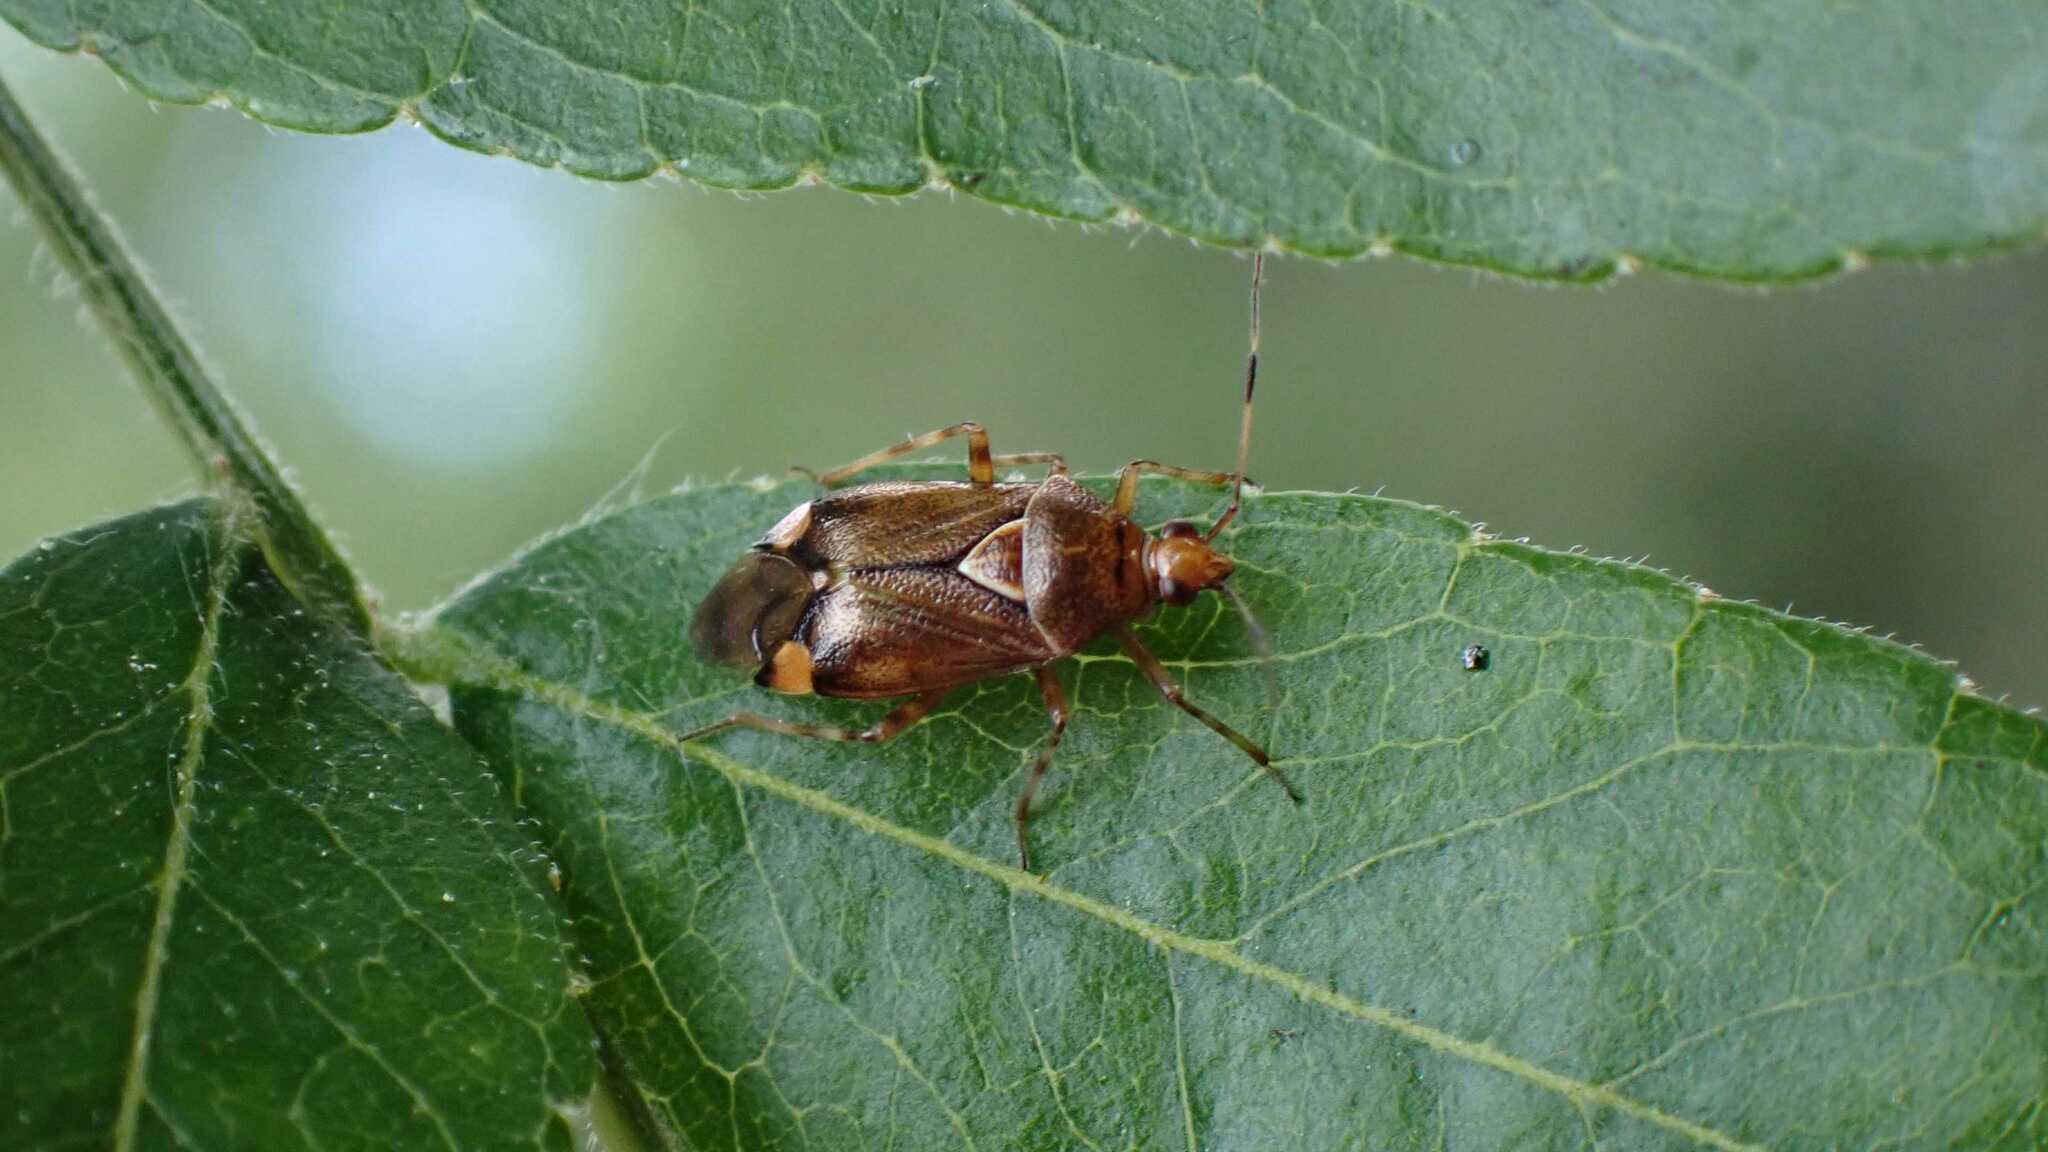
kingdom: Animalia
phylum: Arthropoda
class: Insecta
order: Hemiptera
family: Miridae
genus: Deraeocoris
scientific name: Deraeocoris flavilinea
